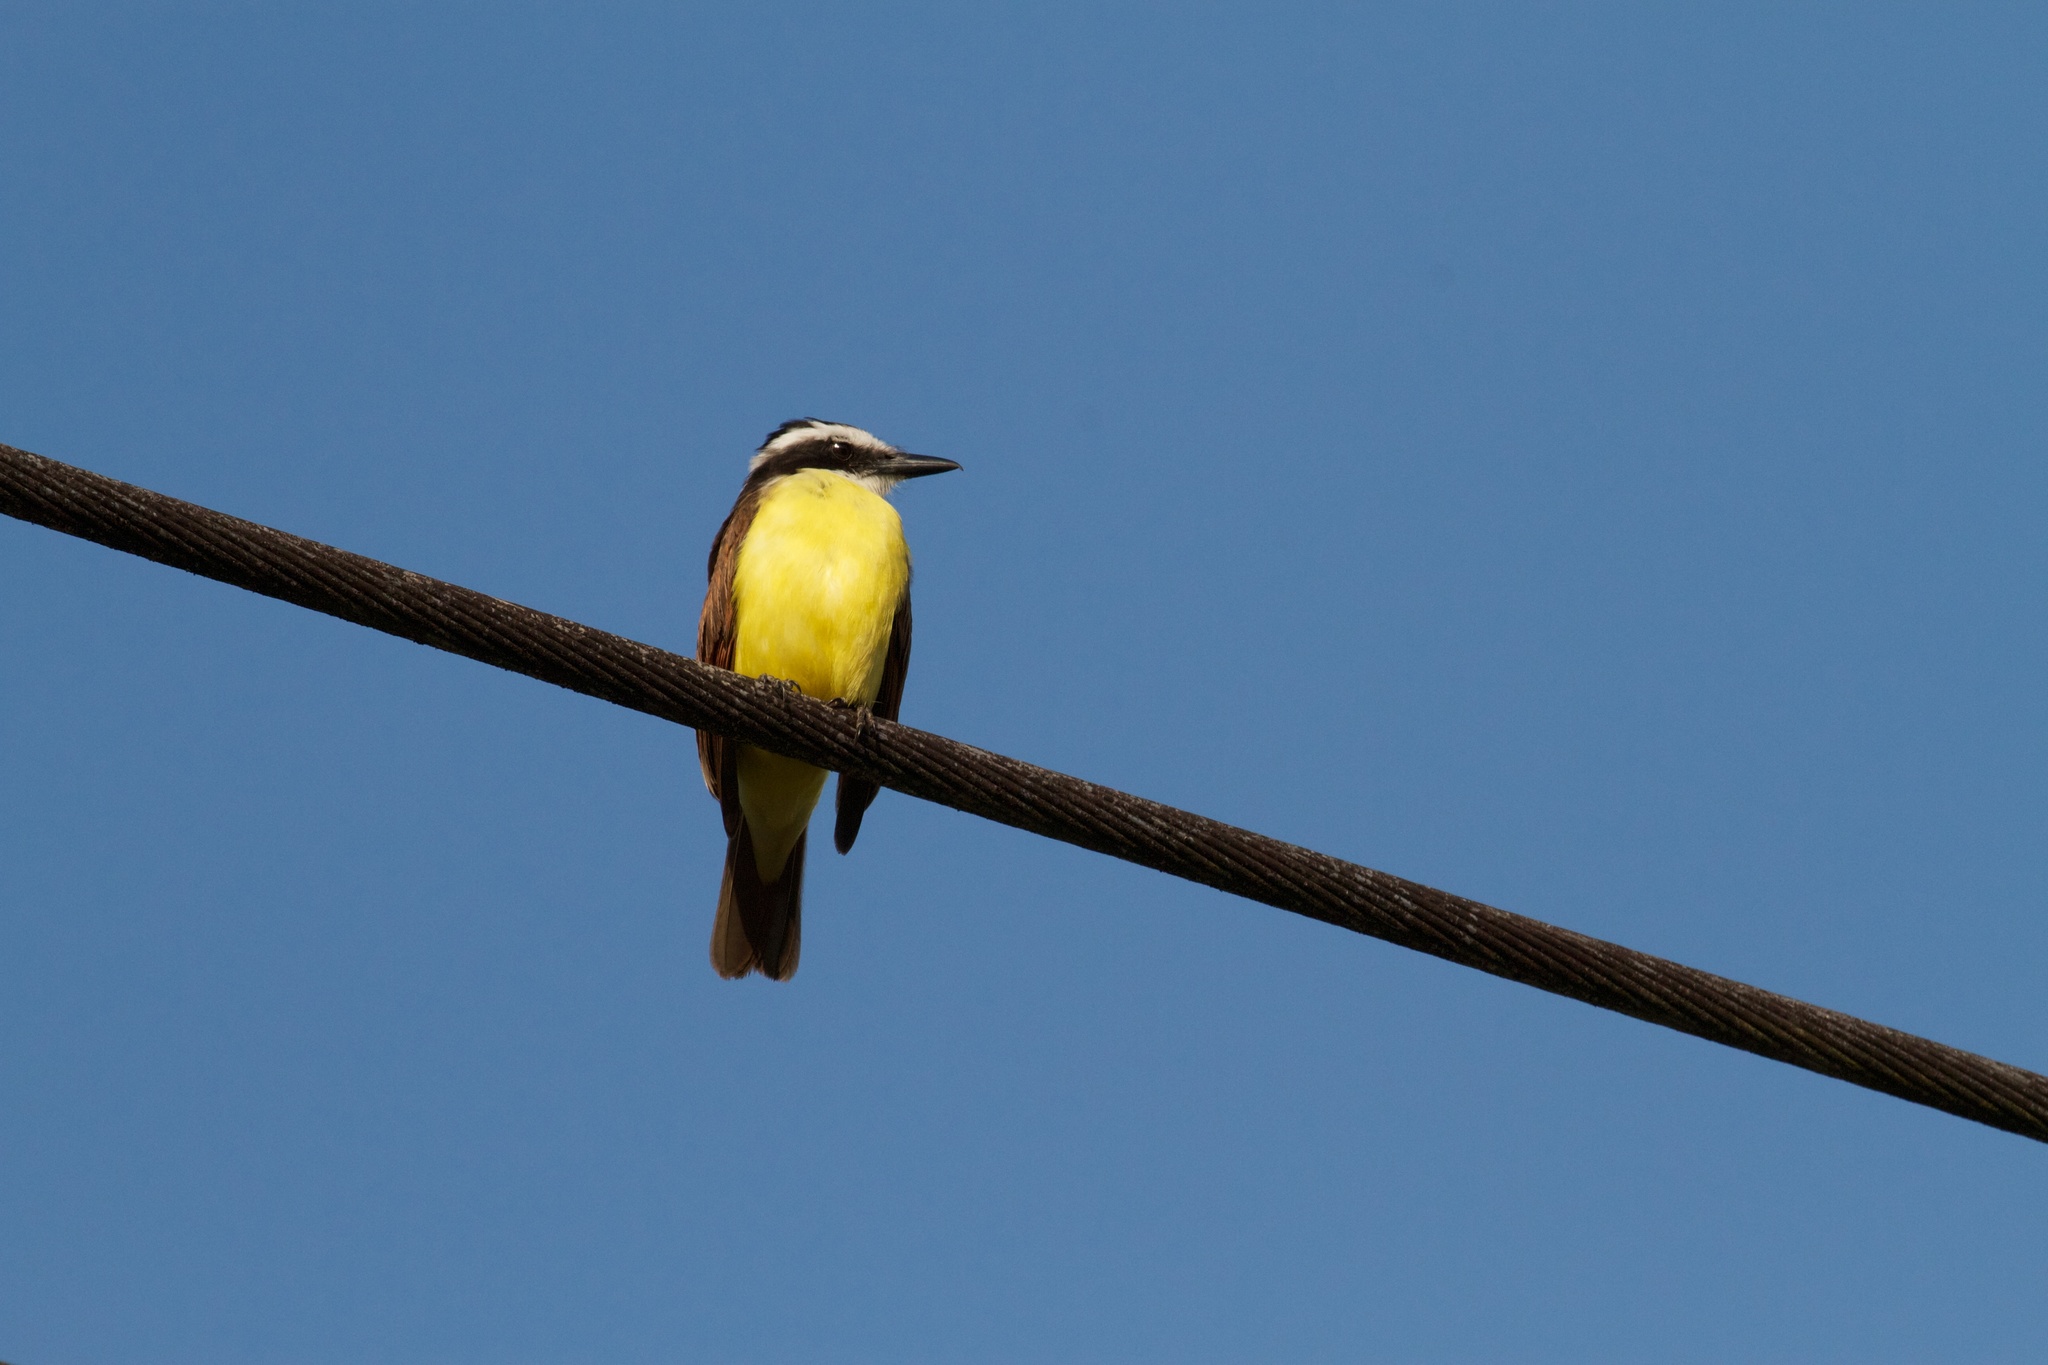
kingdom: Animalia
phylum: Chordata
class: Aves
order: Passeriformes
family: Tyrannidae
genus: Pitangus
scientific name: Pitangus sulphuratus
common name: Great kiskadee
